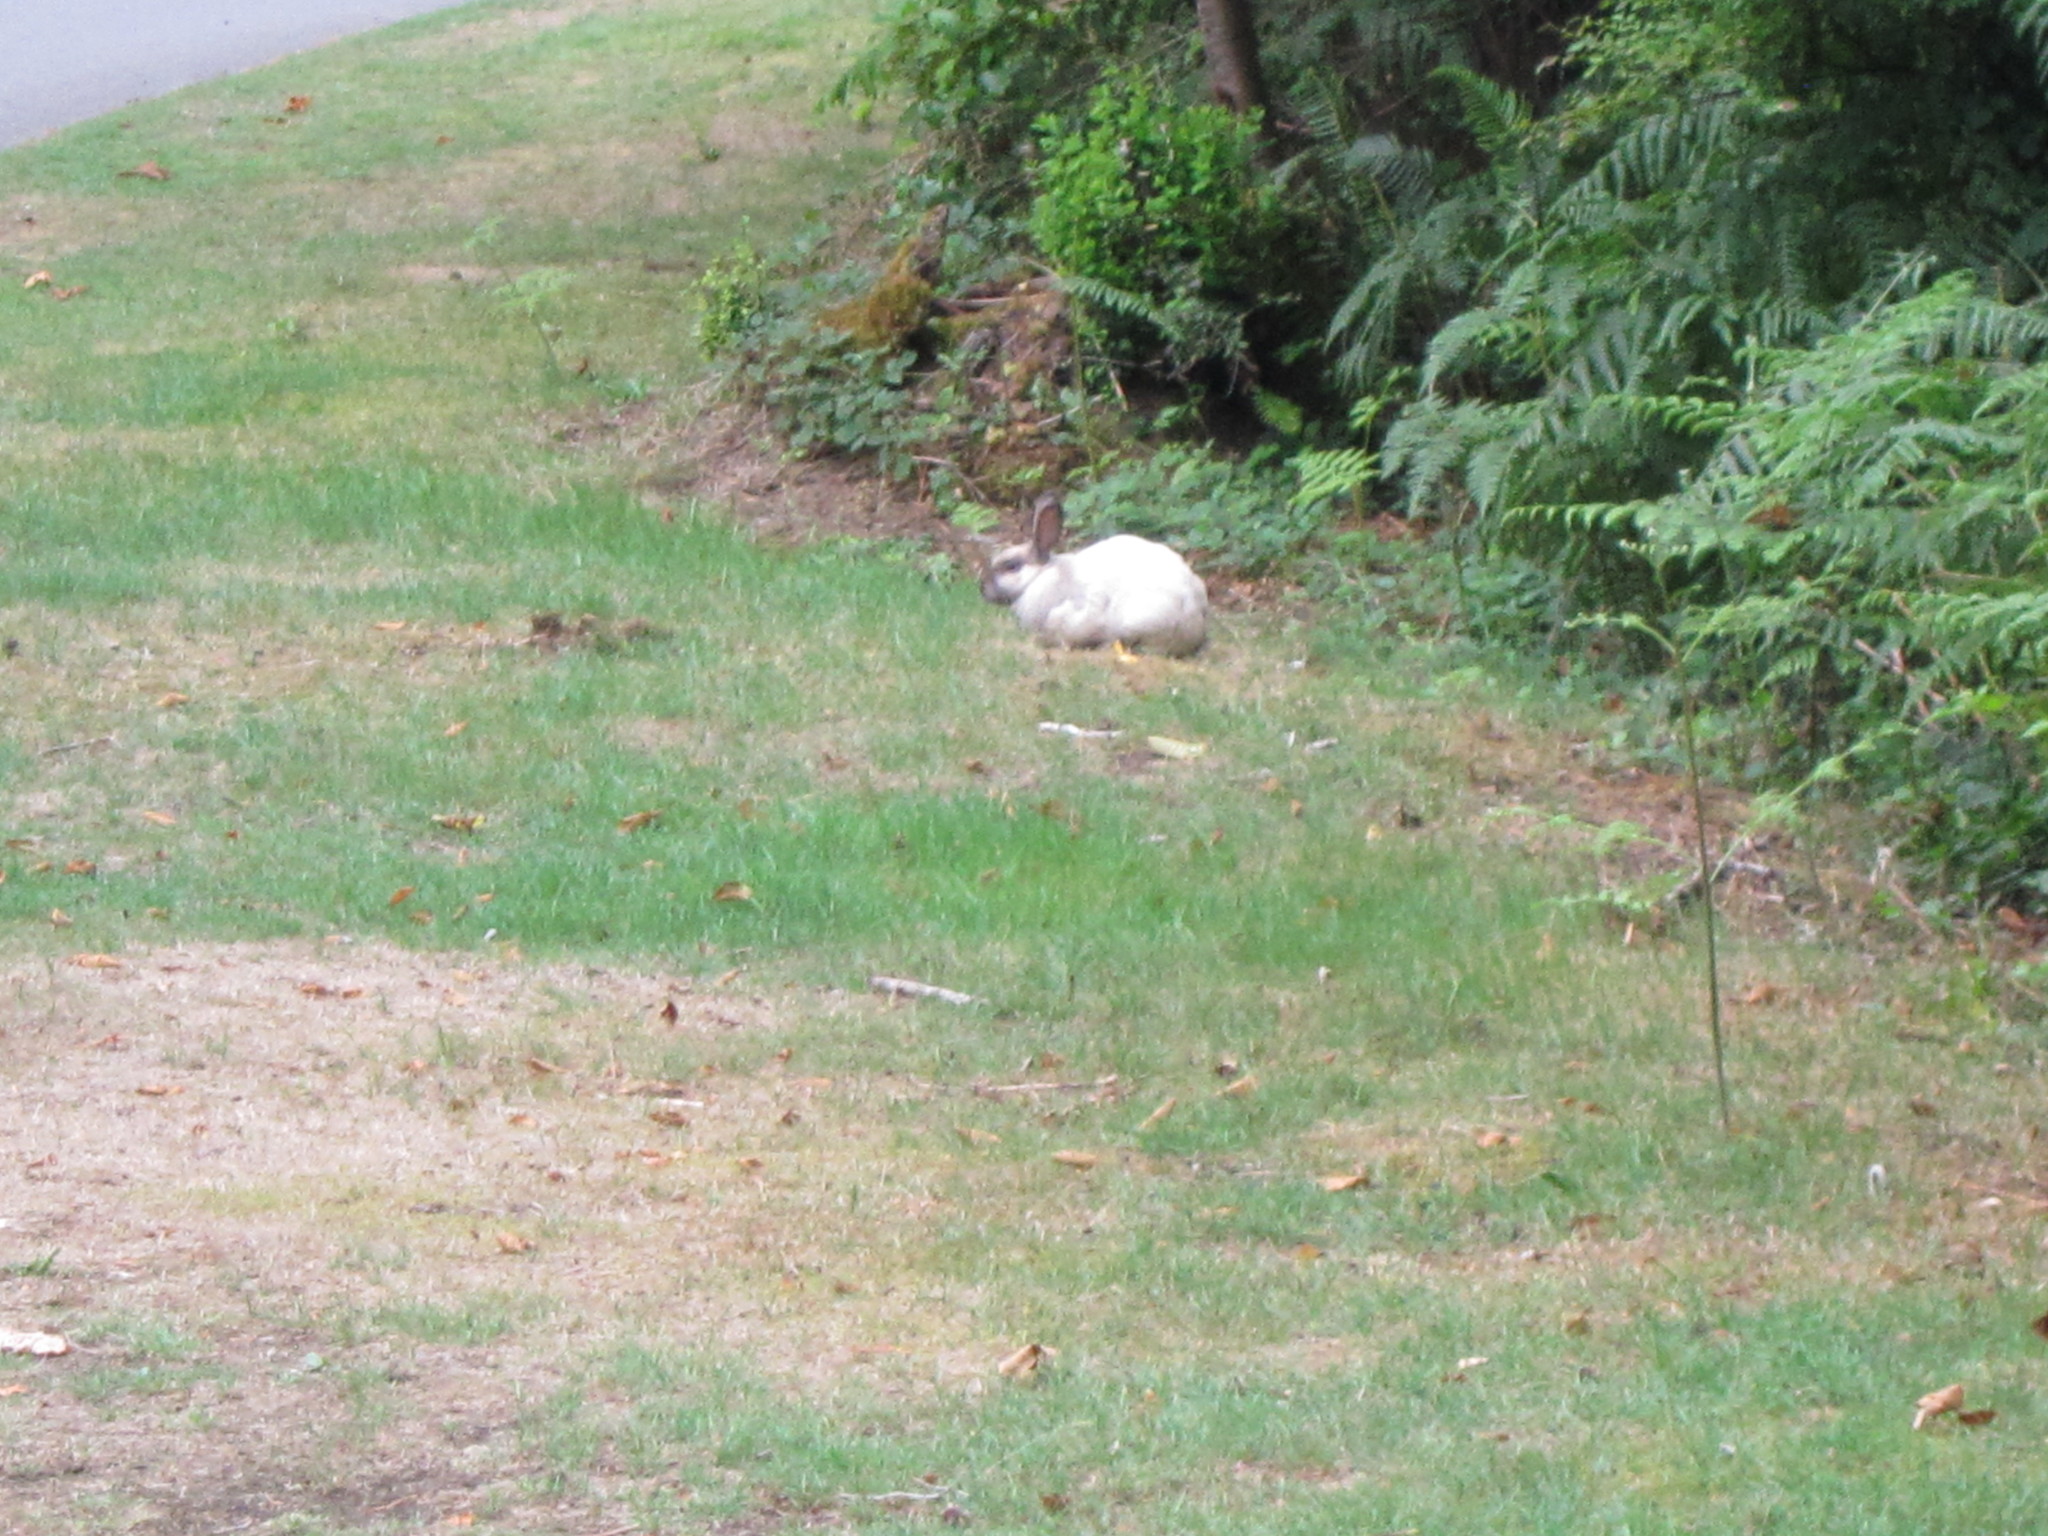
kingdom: Animalia
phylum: Chordata
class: Mammalia
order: Lagomorpha
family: Leporidae
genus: Oryctolagus
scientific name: Oryctolagus cuniculus
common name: European rabbit
